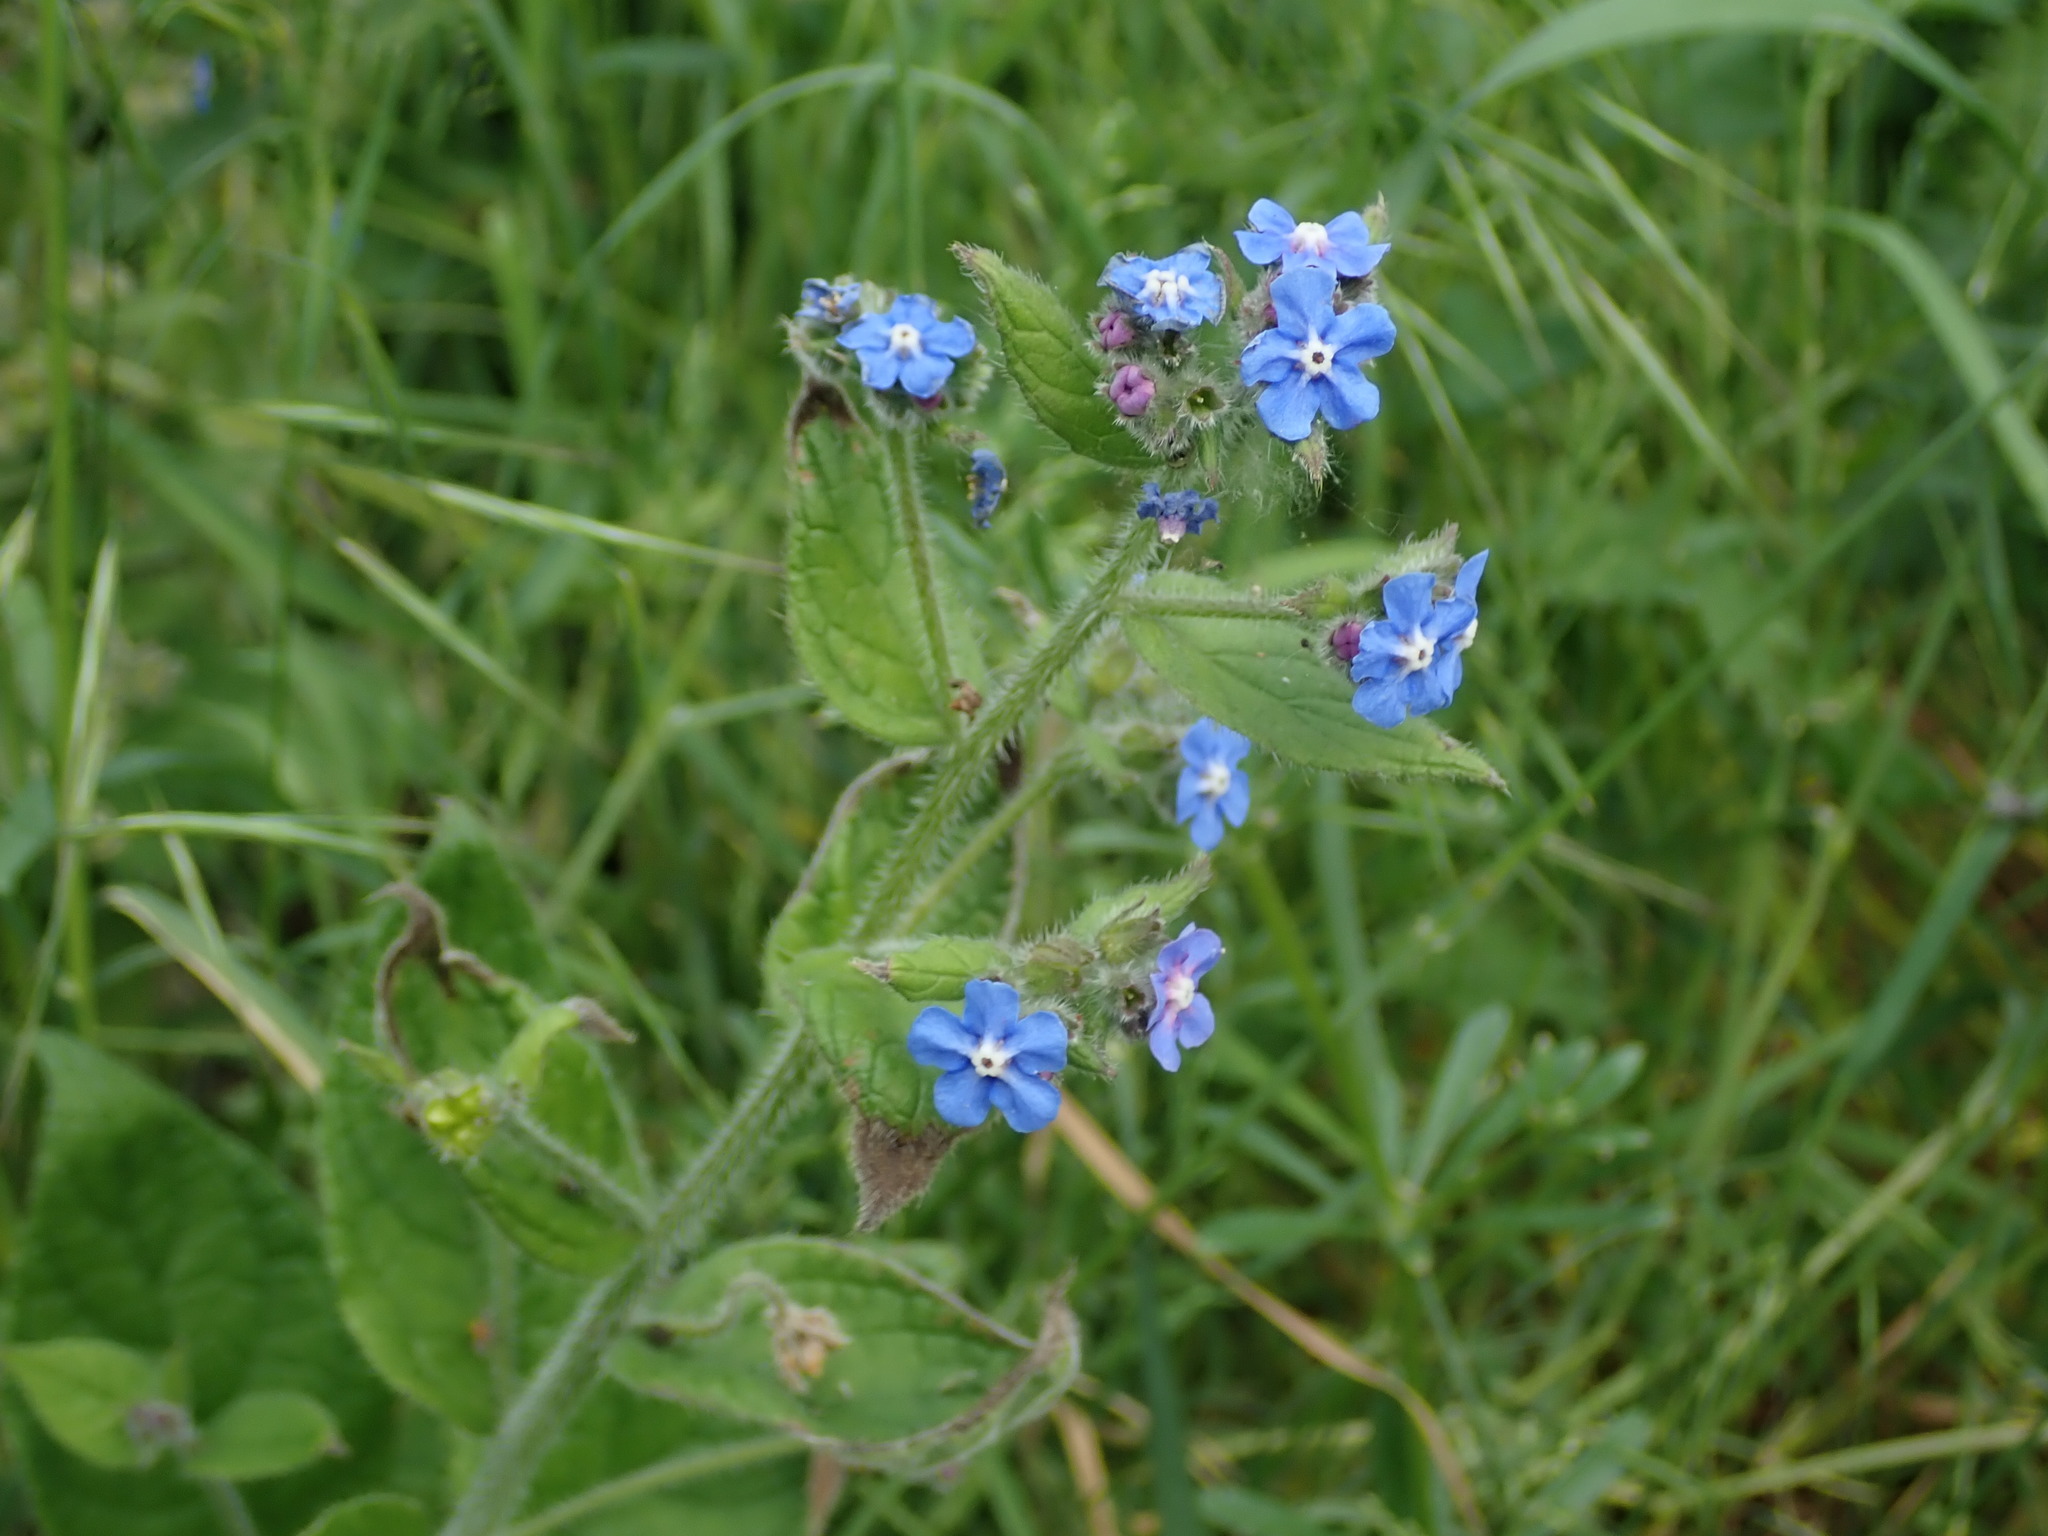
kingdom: Plantae
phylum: Tracheophyta
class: Magnoliopsida
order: Boraginales
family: Boraginaceae
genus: Pentaglottis
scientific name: Pentaglottis sempervirens
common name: Green alkanet
